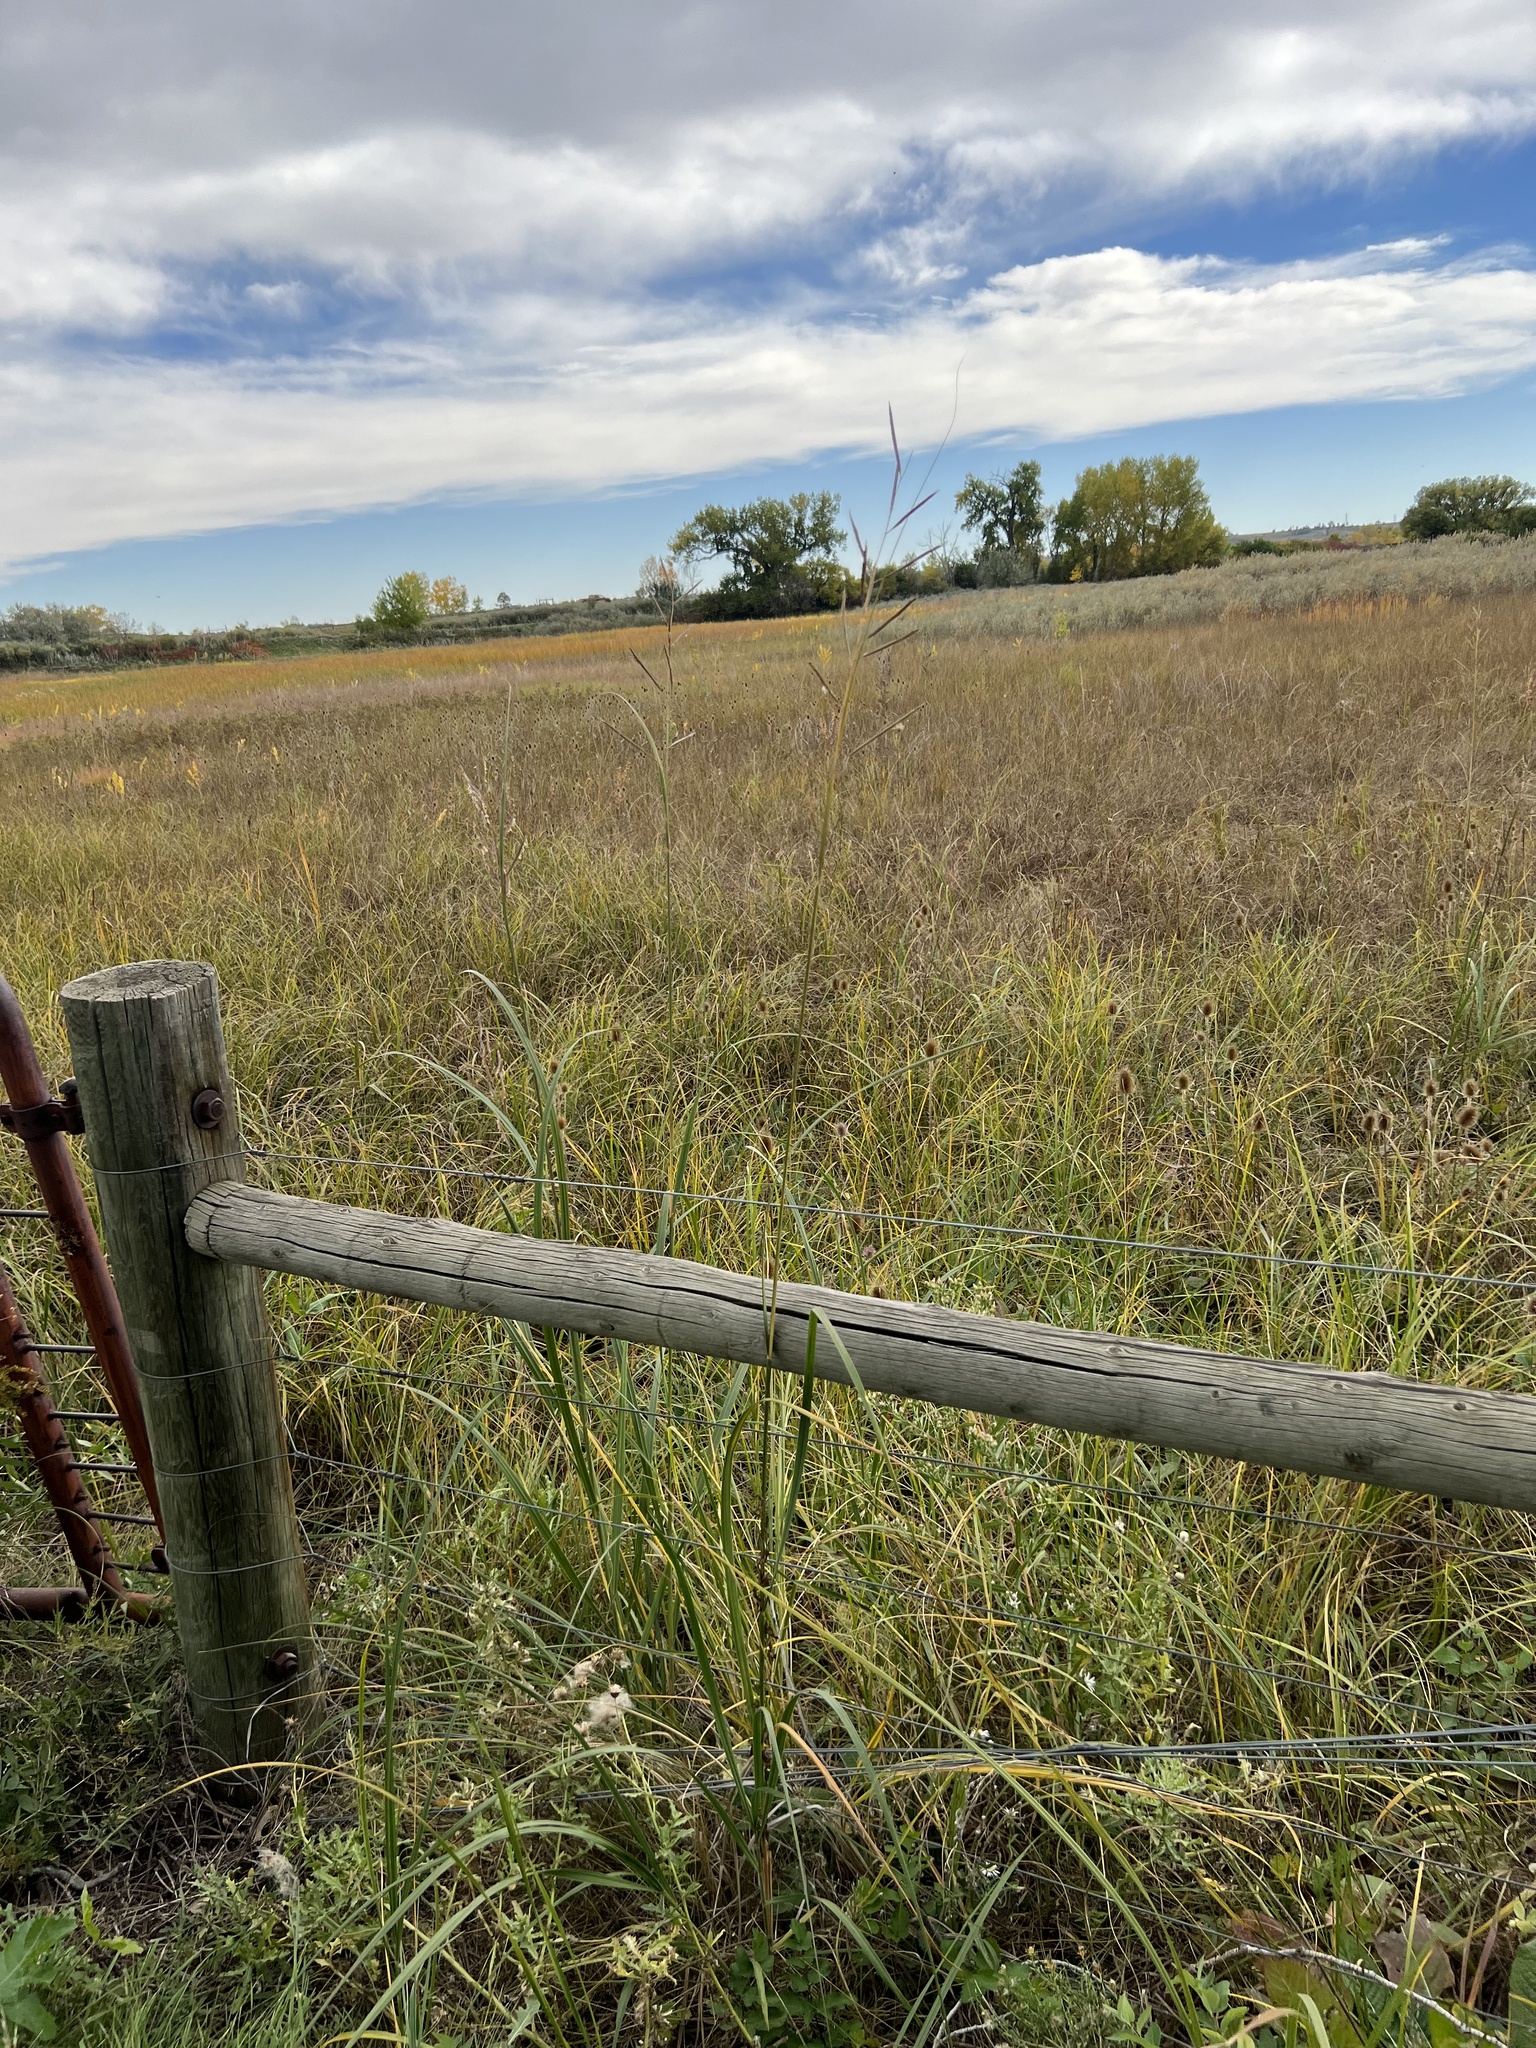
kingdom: Plantae
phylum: Tracheophyta
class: Liliopsida
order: Poales
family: Poaceae
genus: Sporobolus
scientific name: Sporobolus michauxianus
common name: Freshwater cordgrass
